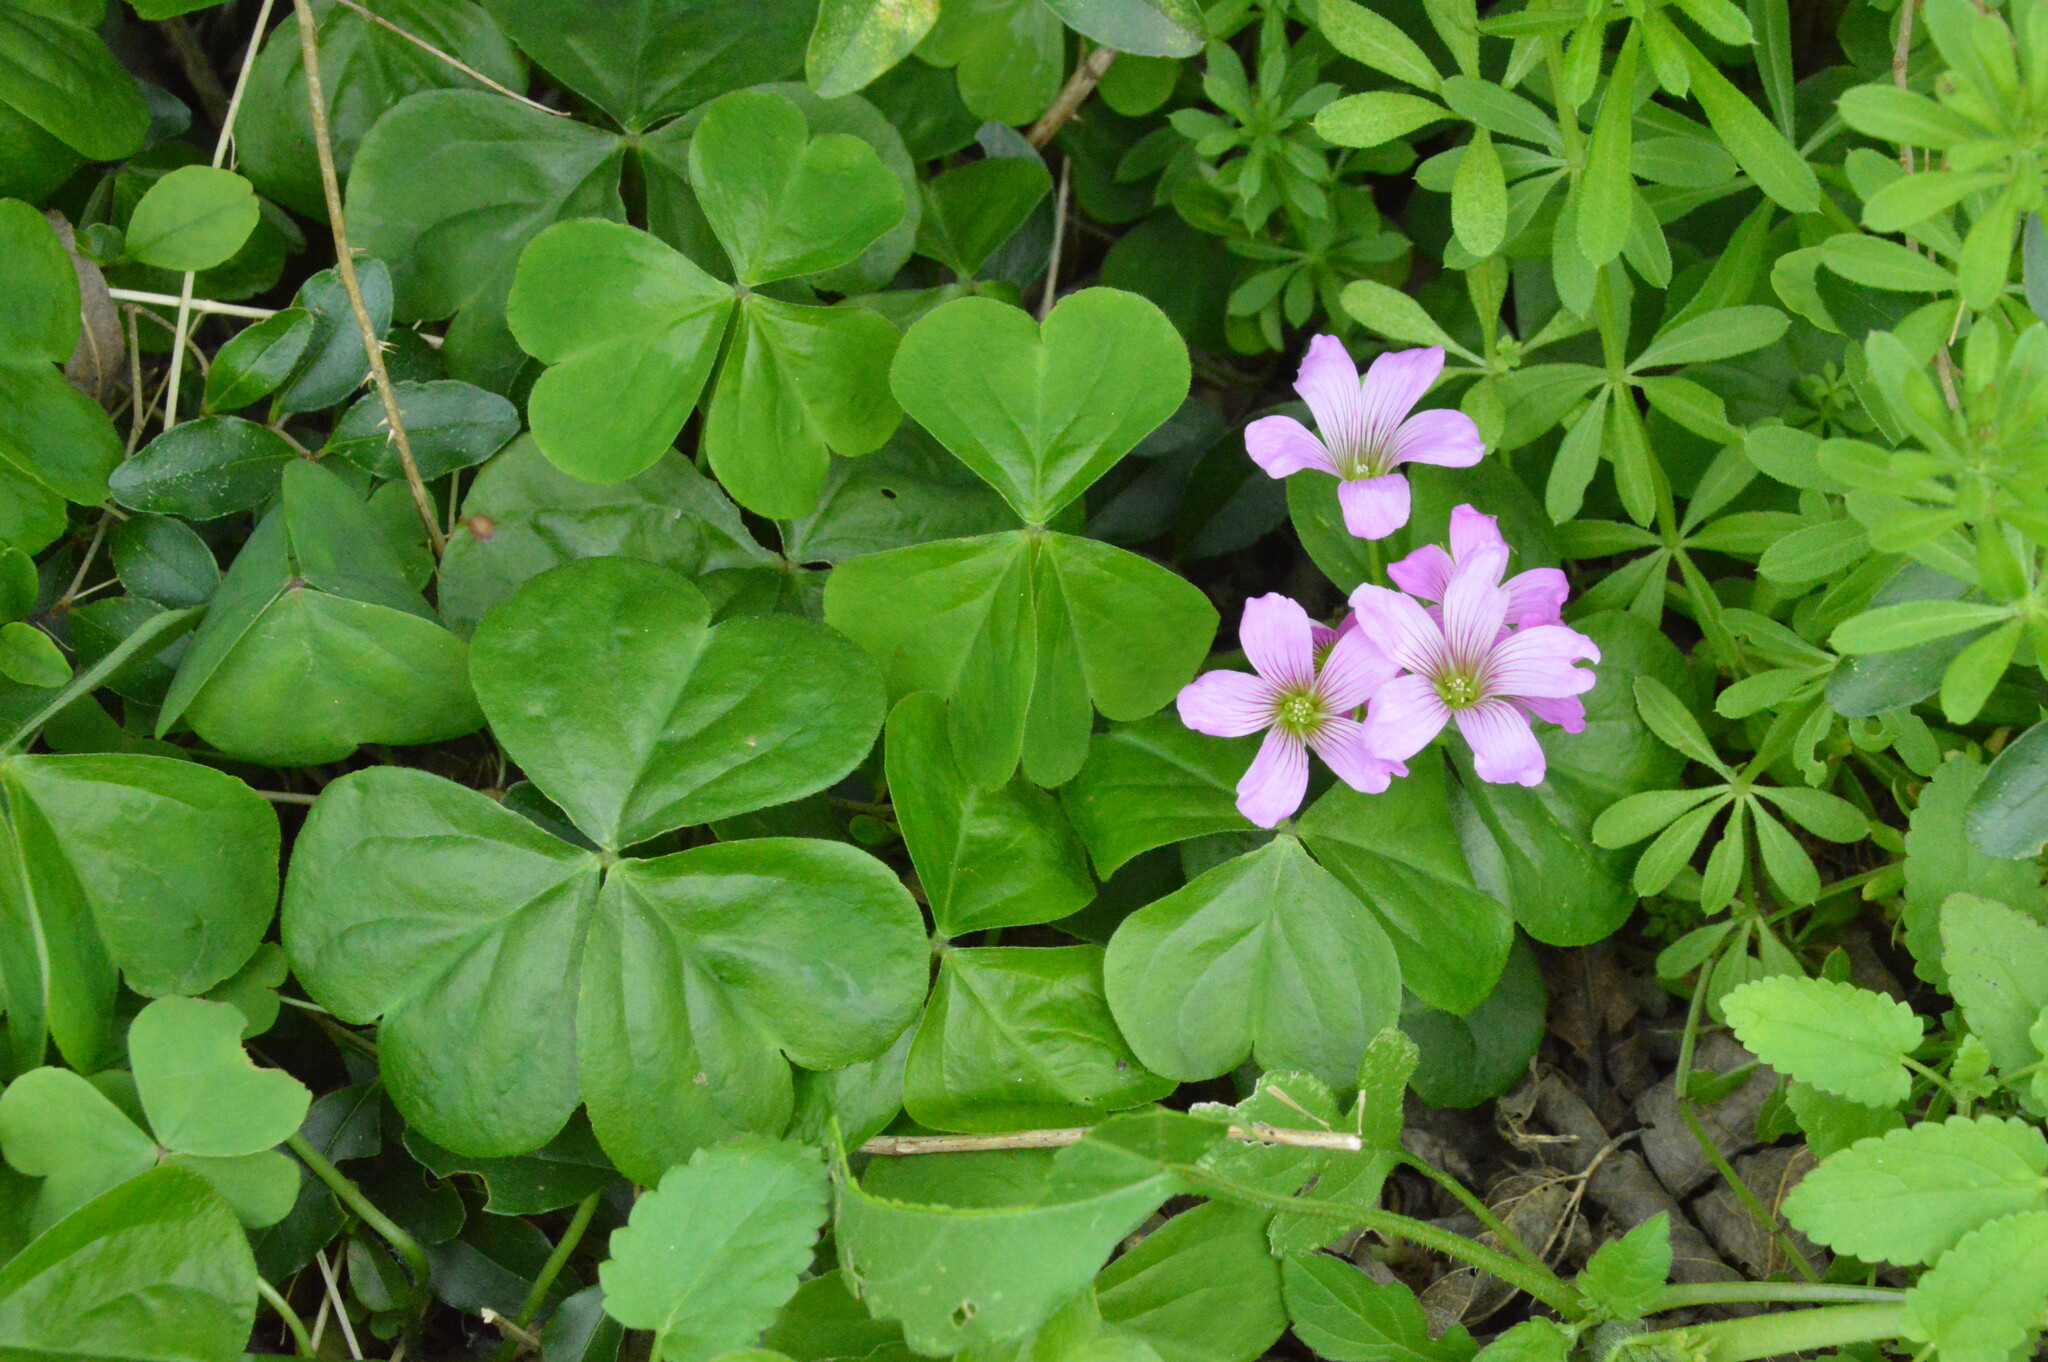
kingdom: Plantae
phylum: Tracheophyta
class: Magnoliopsida
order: Oxalidales
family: Oxalidaceae
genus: Oxalis
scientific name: Oxalis debilis
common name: Large-flowered pink-sorrel
